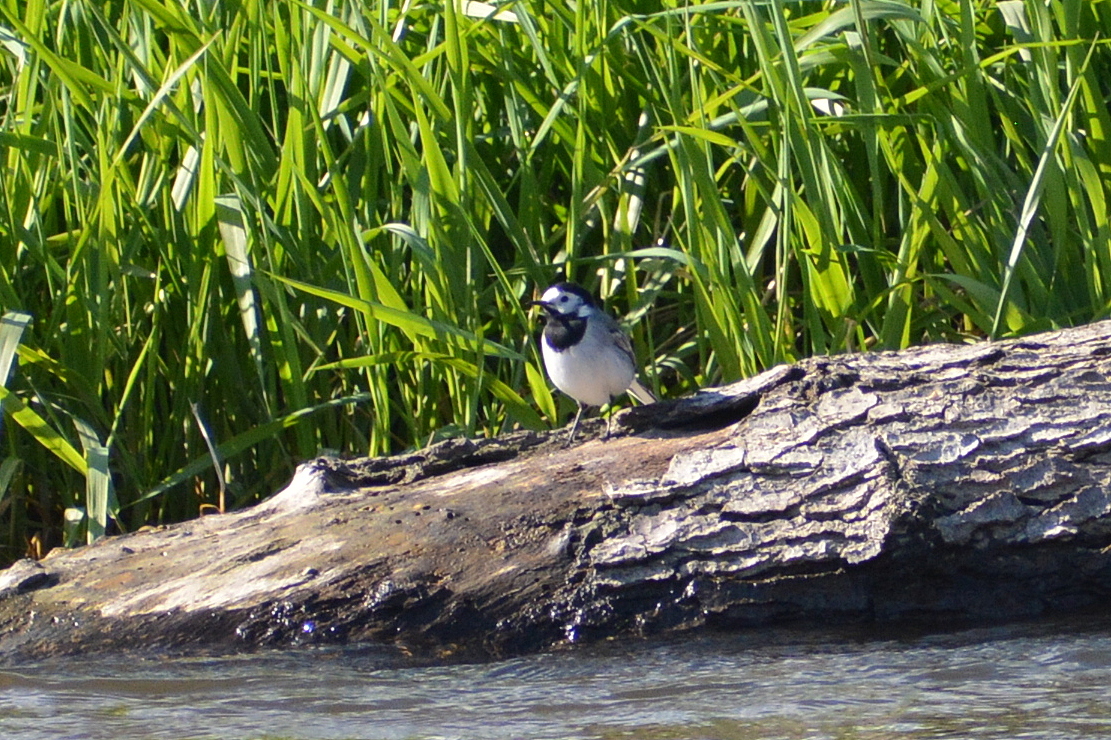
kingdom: Animalia
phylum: Chordata
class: Aves
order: Passeriformes
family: Motacillidae
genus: Motacilla
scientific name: Motacilla alba
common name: White wagtail
